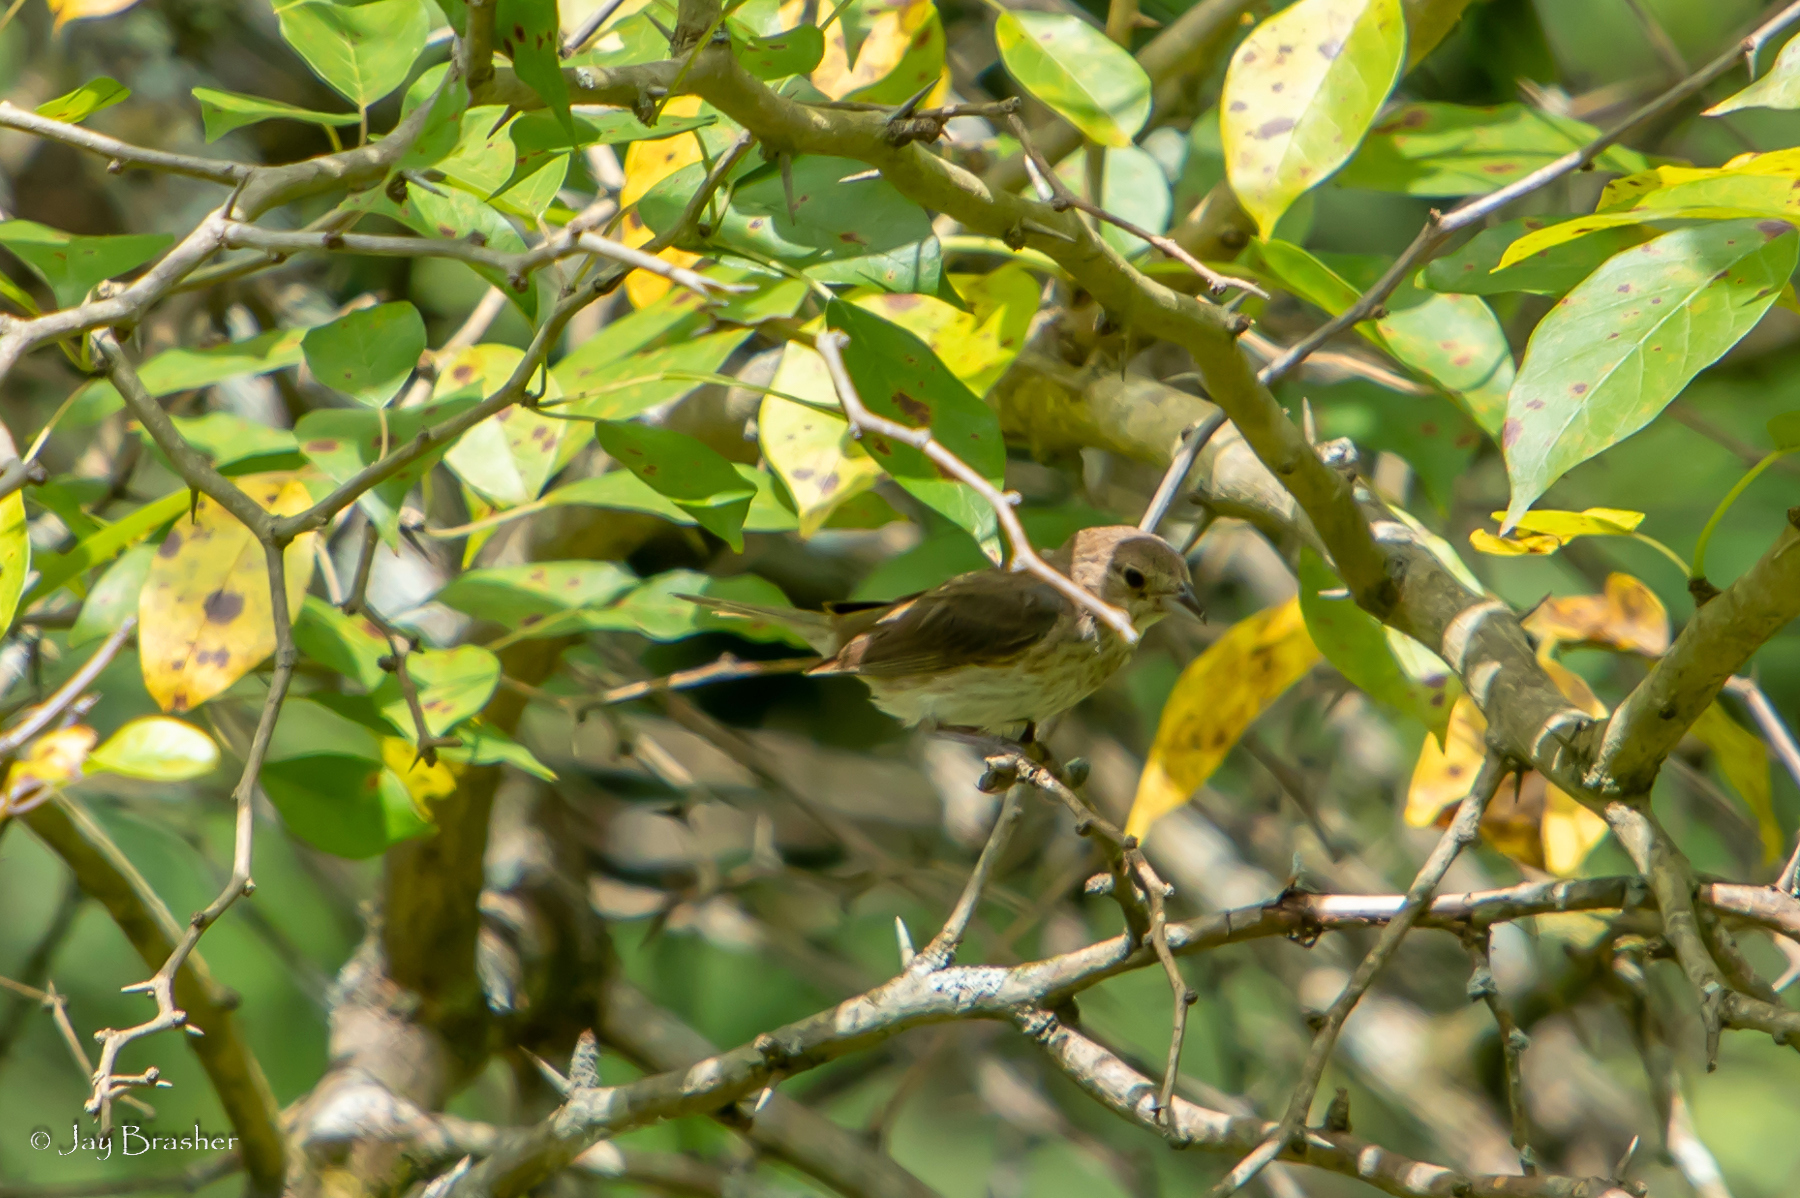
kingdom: Animalia
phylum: Chordata
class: Aves
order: Passeriformes
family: Cardinalidae
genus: Passerina
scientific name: Passerina cyanea
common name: Indigo bunting
